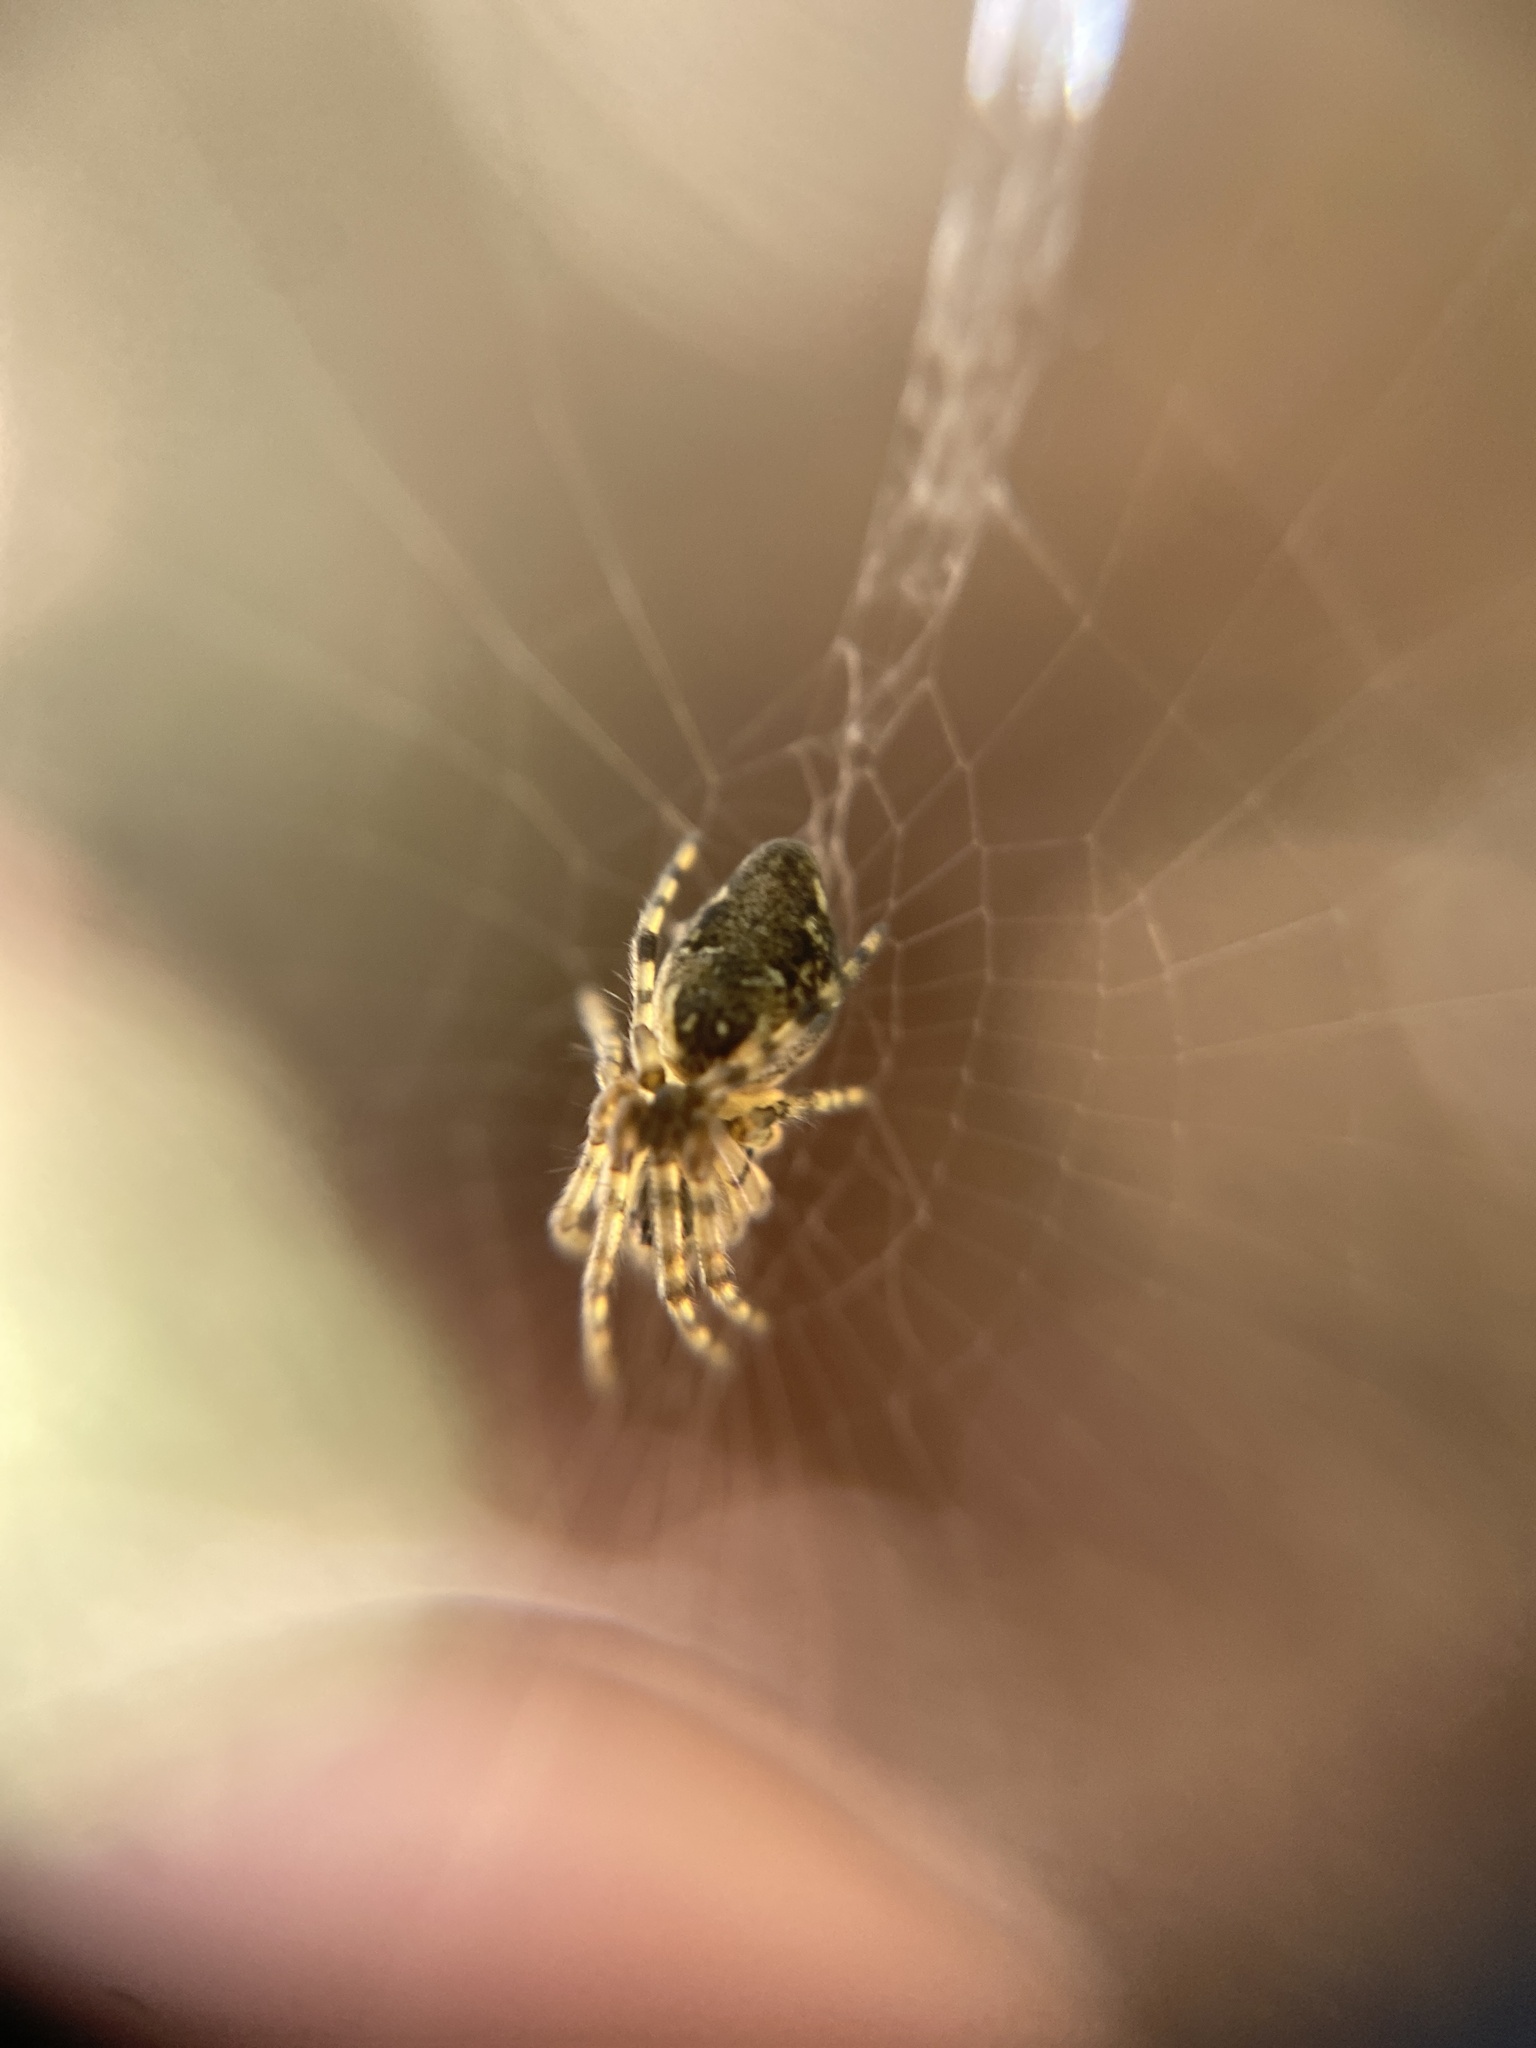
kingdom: Animalia
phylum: Arthropoda
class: Arachnida
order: Araneae
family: Araneidae
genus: Cyclosa
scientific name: Cyclosa conica
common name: Conical trashline orbweaver
